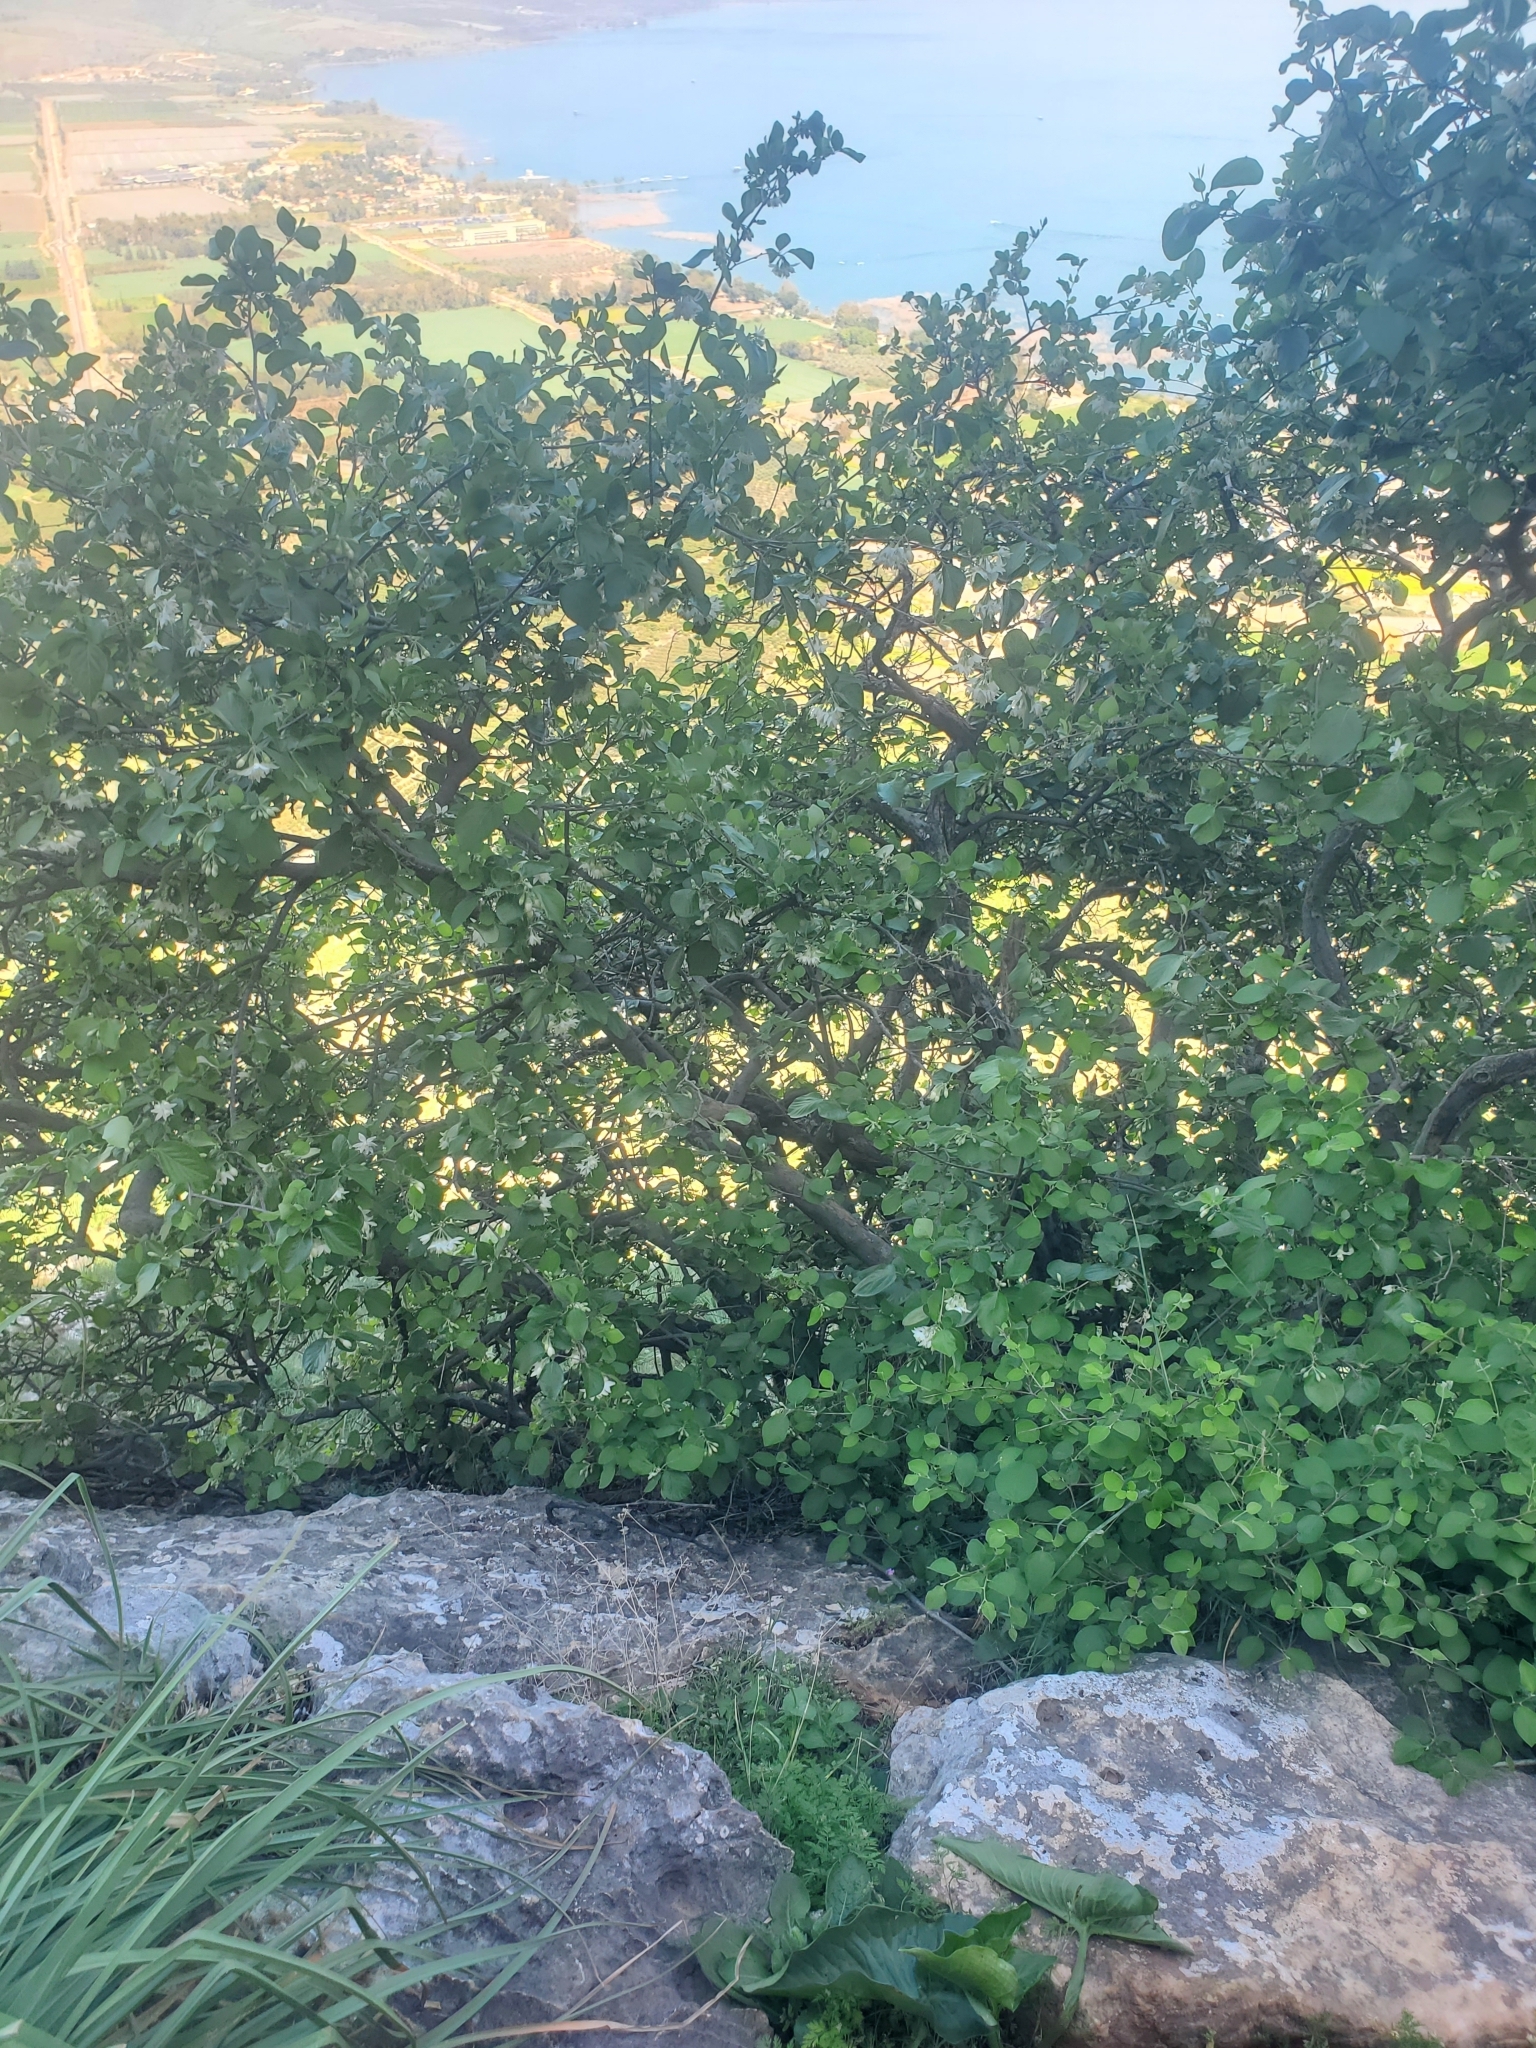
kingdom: Plantae
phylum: Tracheophyta
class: Magnoliopsida
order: Ericales
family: Styracaceae
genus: Styrax
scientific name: Styrax officinalis
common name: Storax
